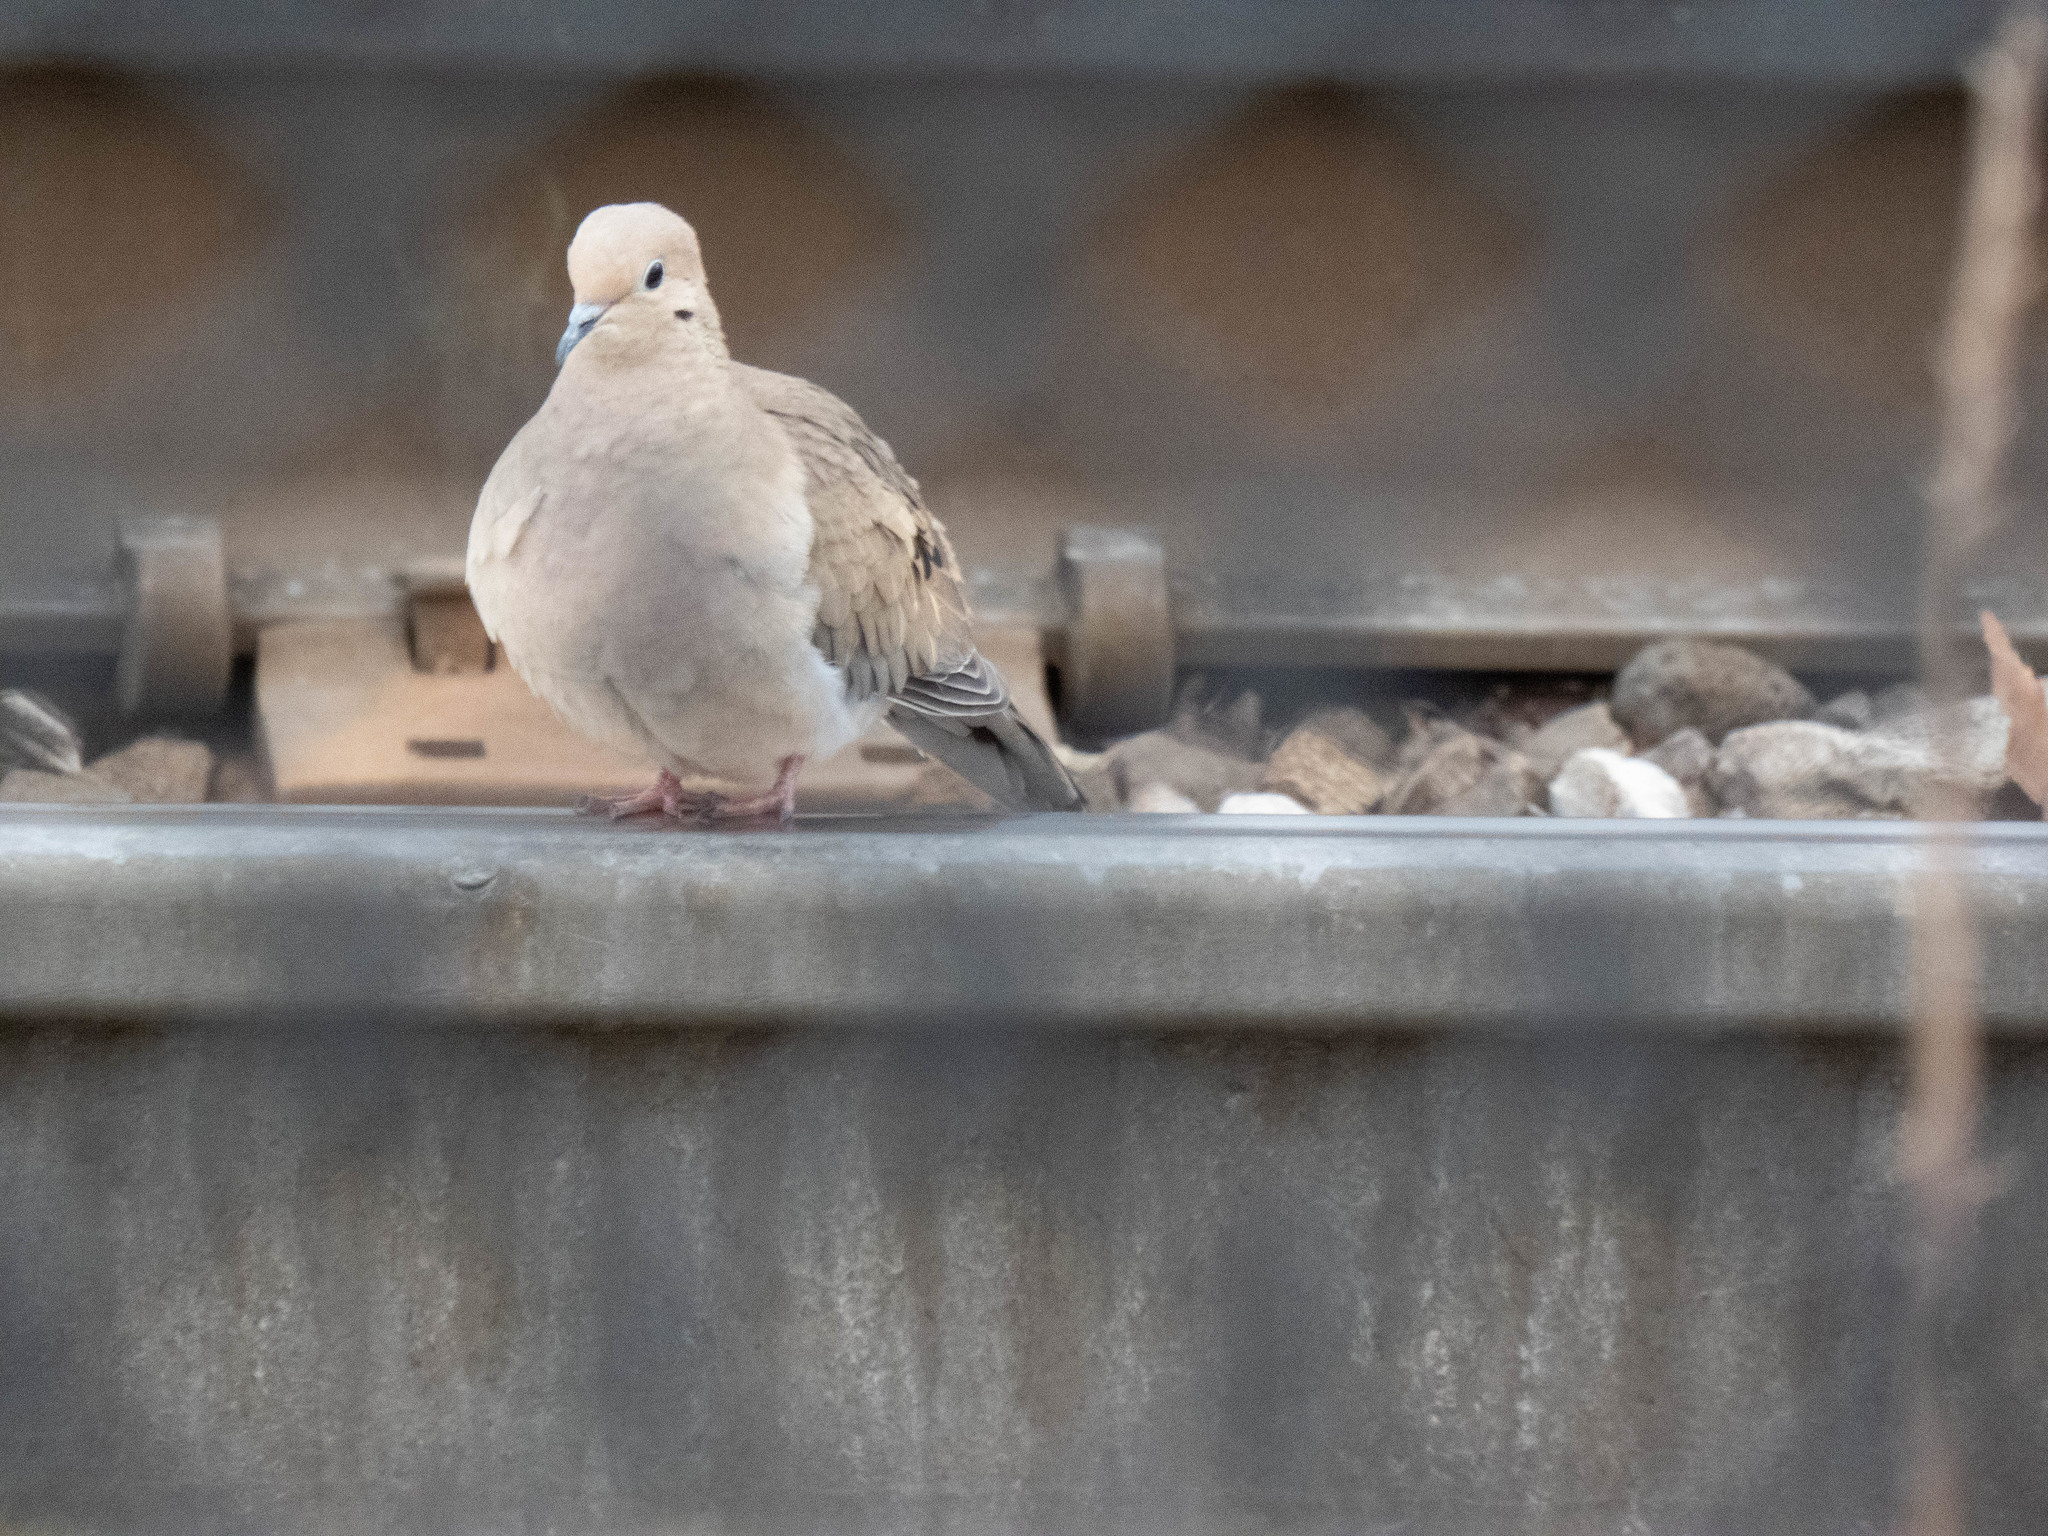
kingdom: Animalia
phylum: Chordata
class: Aves
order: Columbiformes
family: Columbidae
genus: Zenaida
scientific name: Zenaida macroura
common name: Mourning dove
